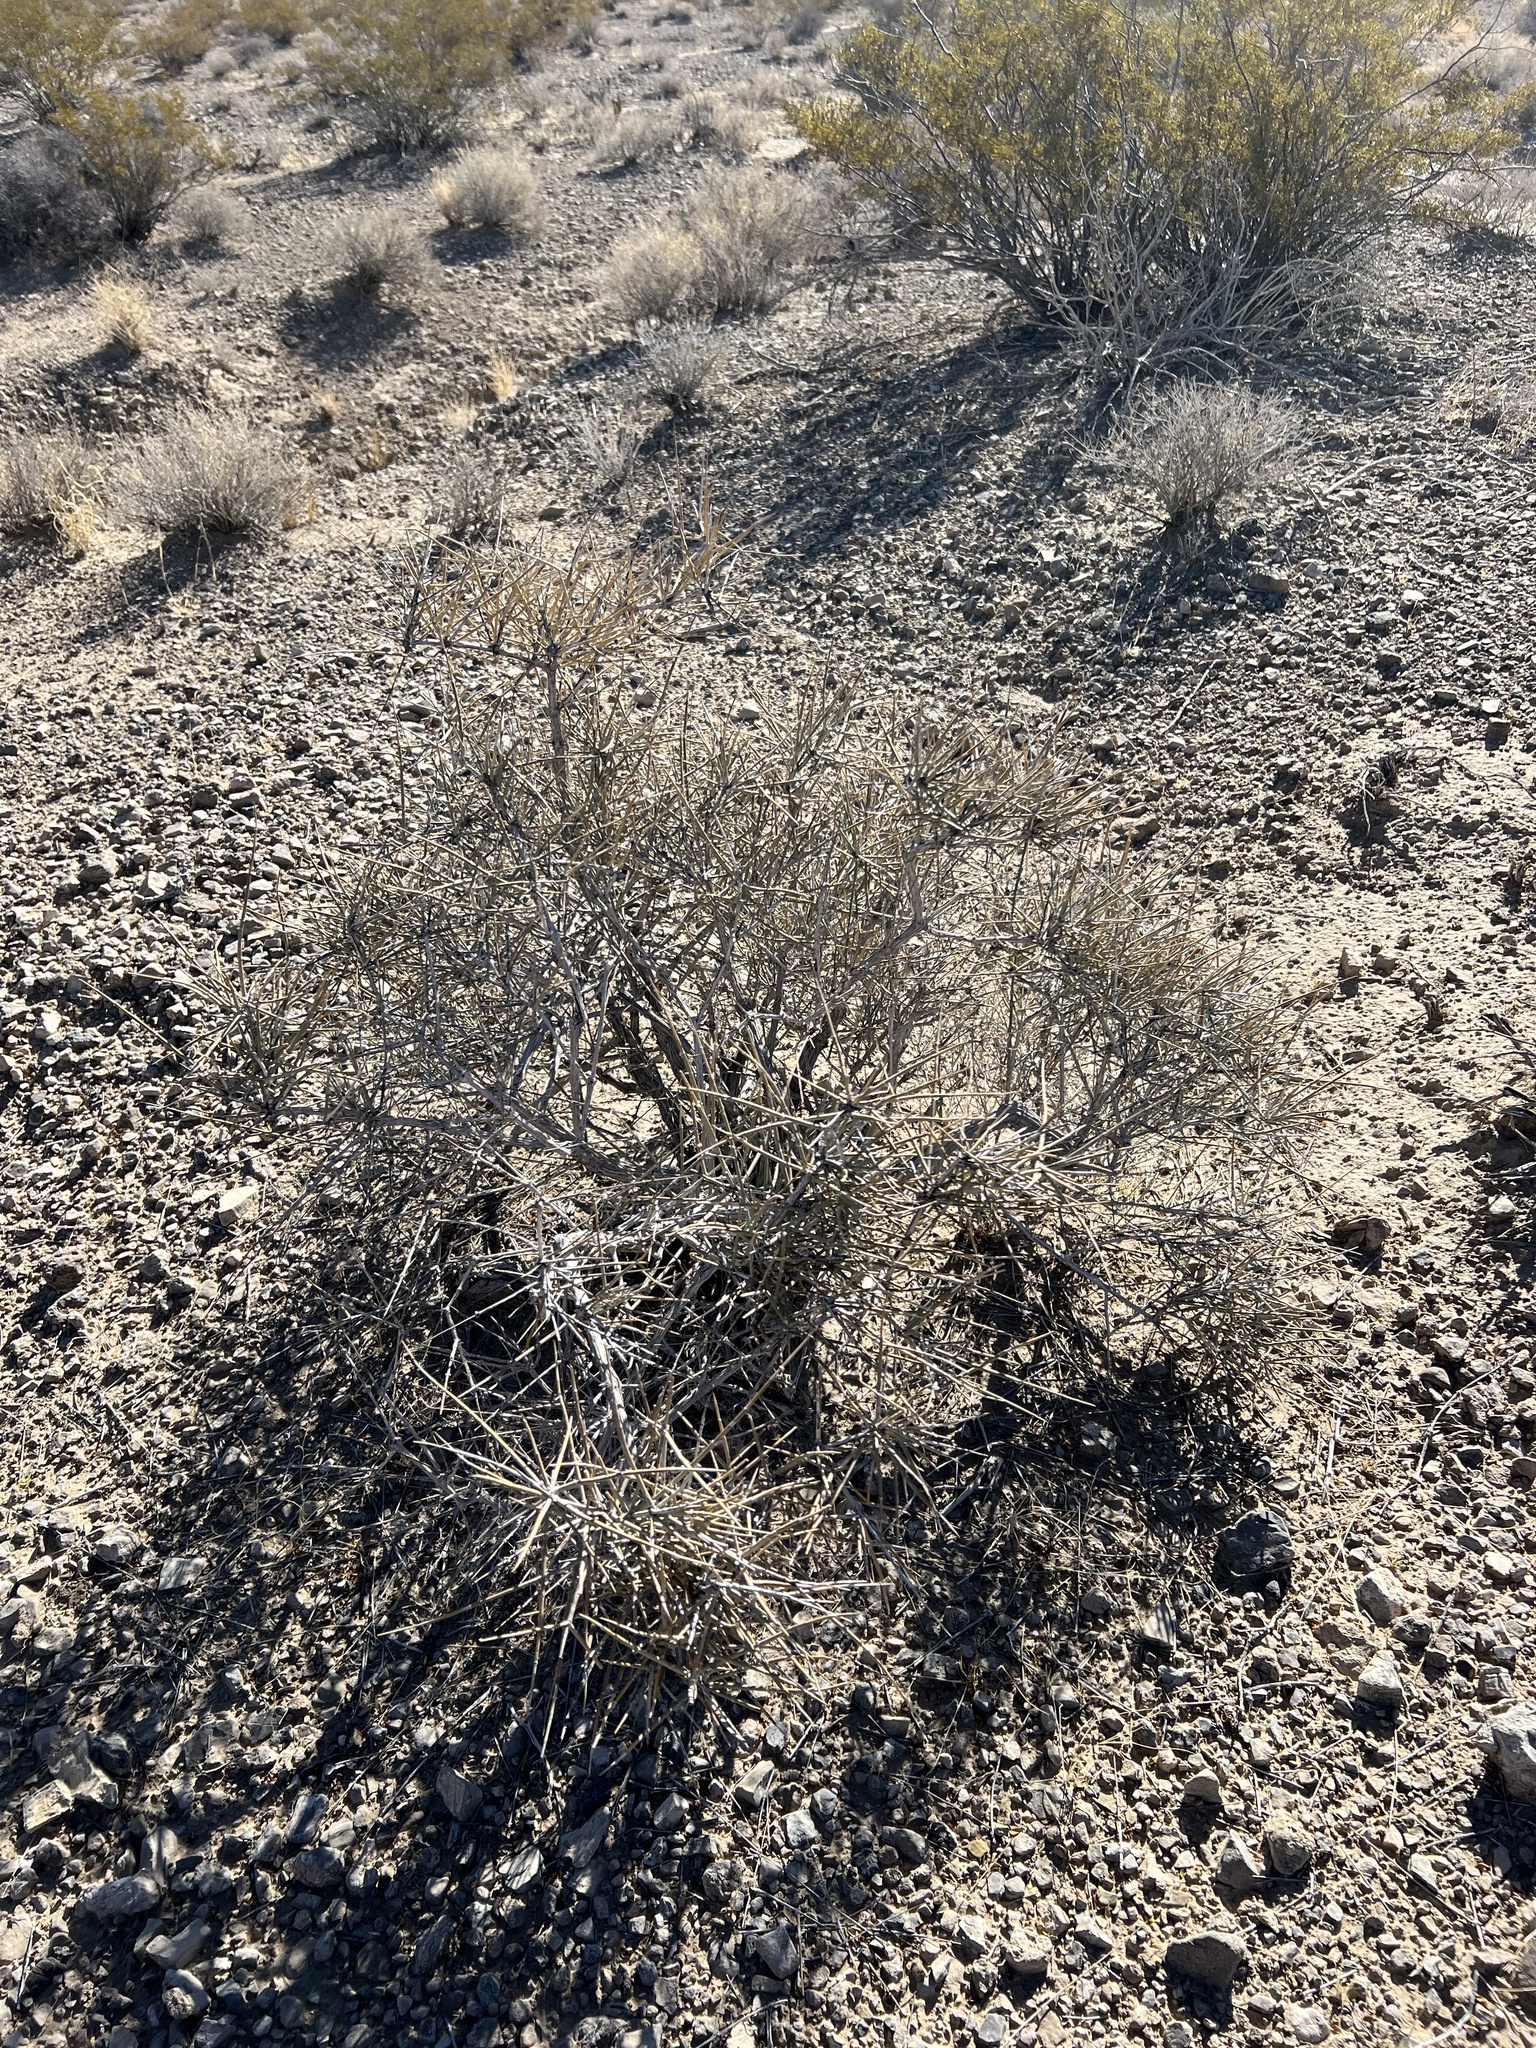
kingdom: Plantae
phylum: Tracheophyta
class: Gnetopsida
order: Ephedrales
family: Ephedraceae
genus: Ephedra
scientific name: Ephedra nevadensis
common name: Gray ephedra
